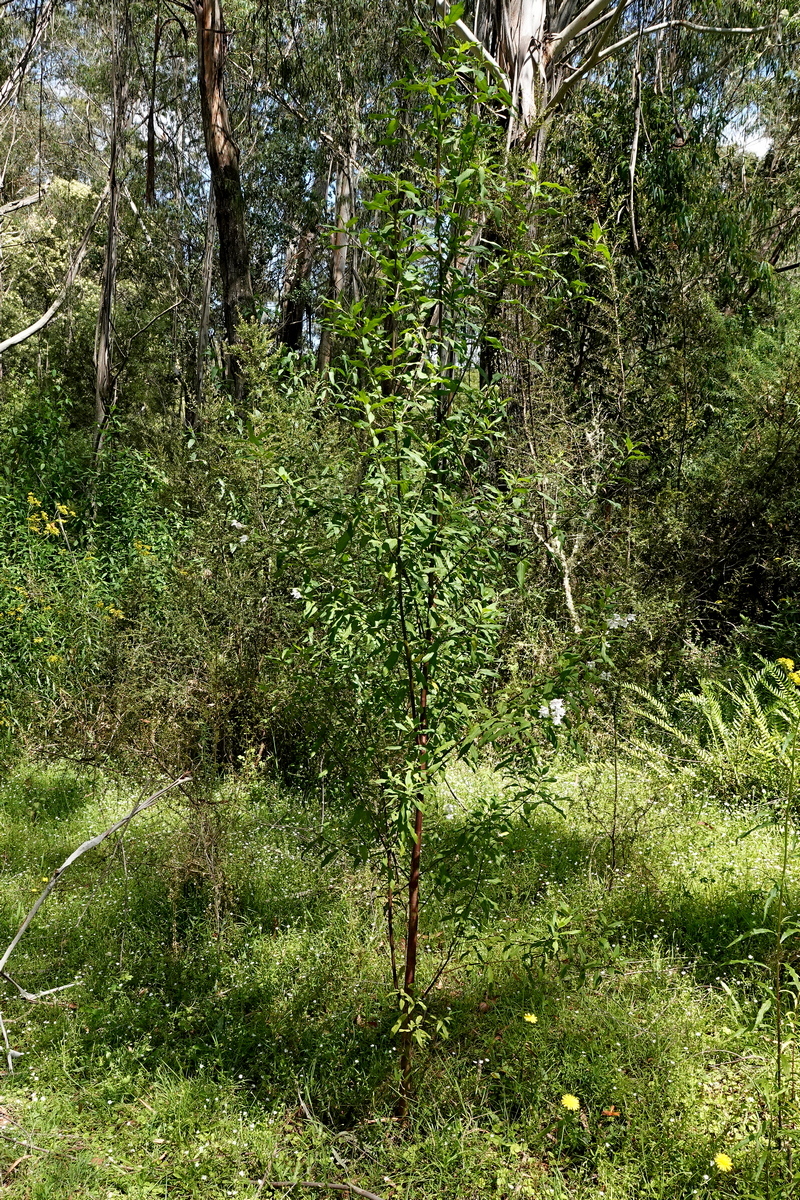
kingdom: Plantae
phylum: Tracheophyta
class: Magnoliopsida
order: Lamiales
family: Lamiaceae
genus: Prostanthera
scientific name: Prostanthera lasianthos
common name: Mountain-lilac
